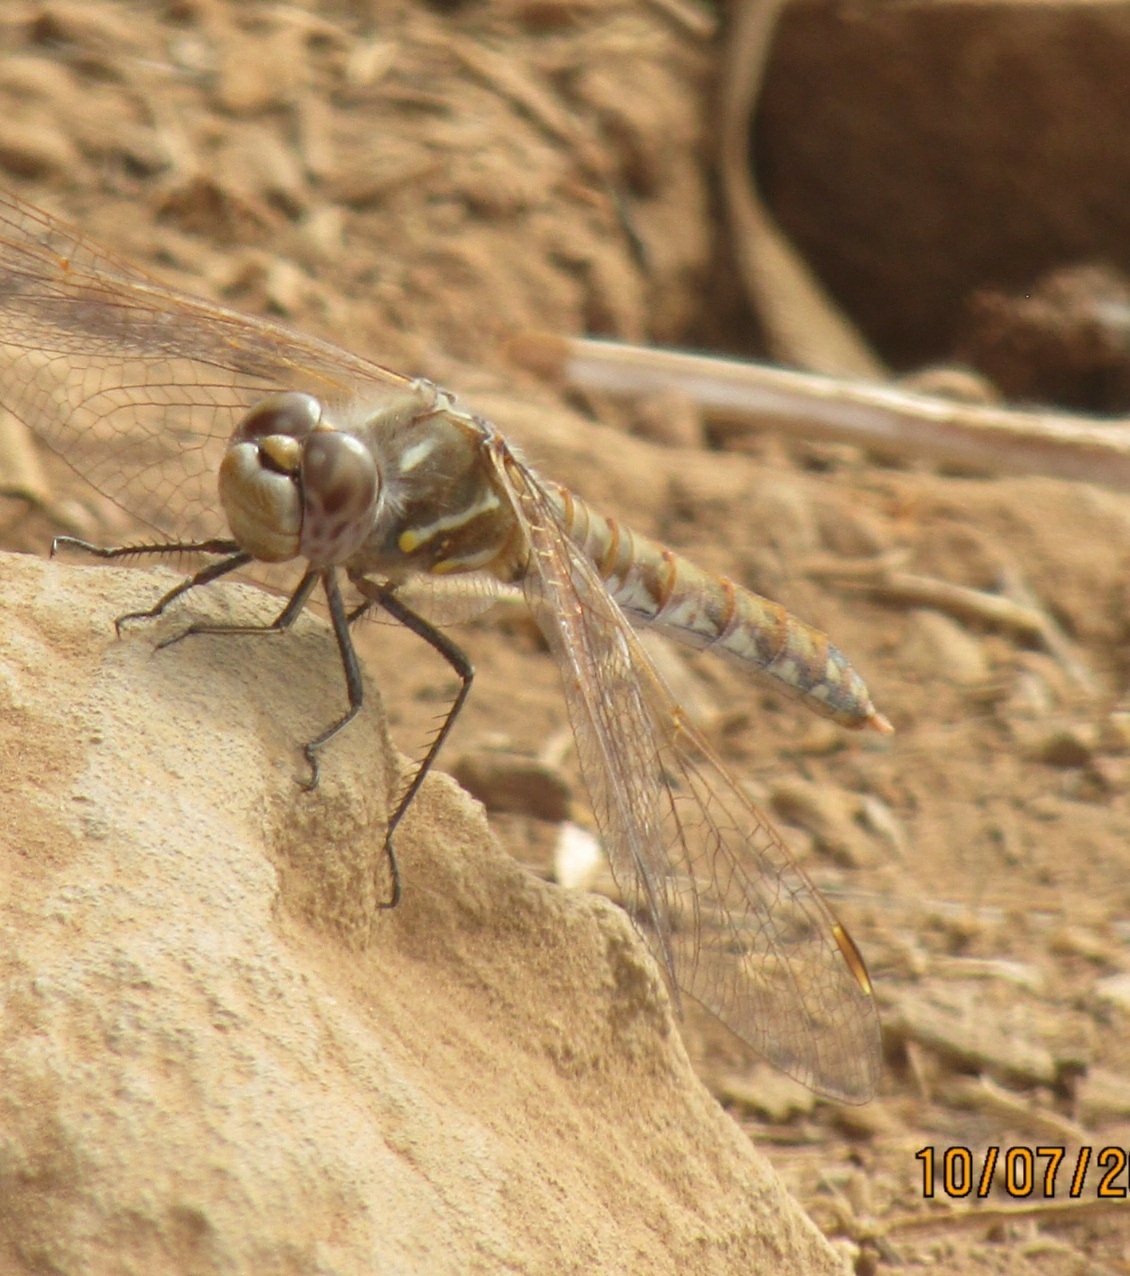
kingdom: Animalia
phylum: Arthropoda
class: Insecta
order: Odonata
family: Libellulidae
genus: Sympetrum
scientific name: Sympetrum corruptum
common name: Variegated meadowhawk
